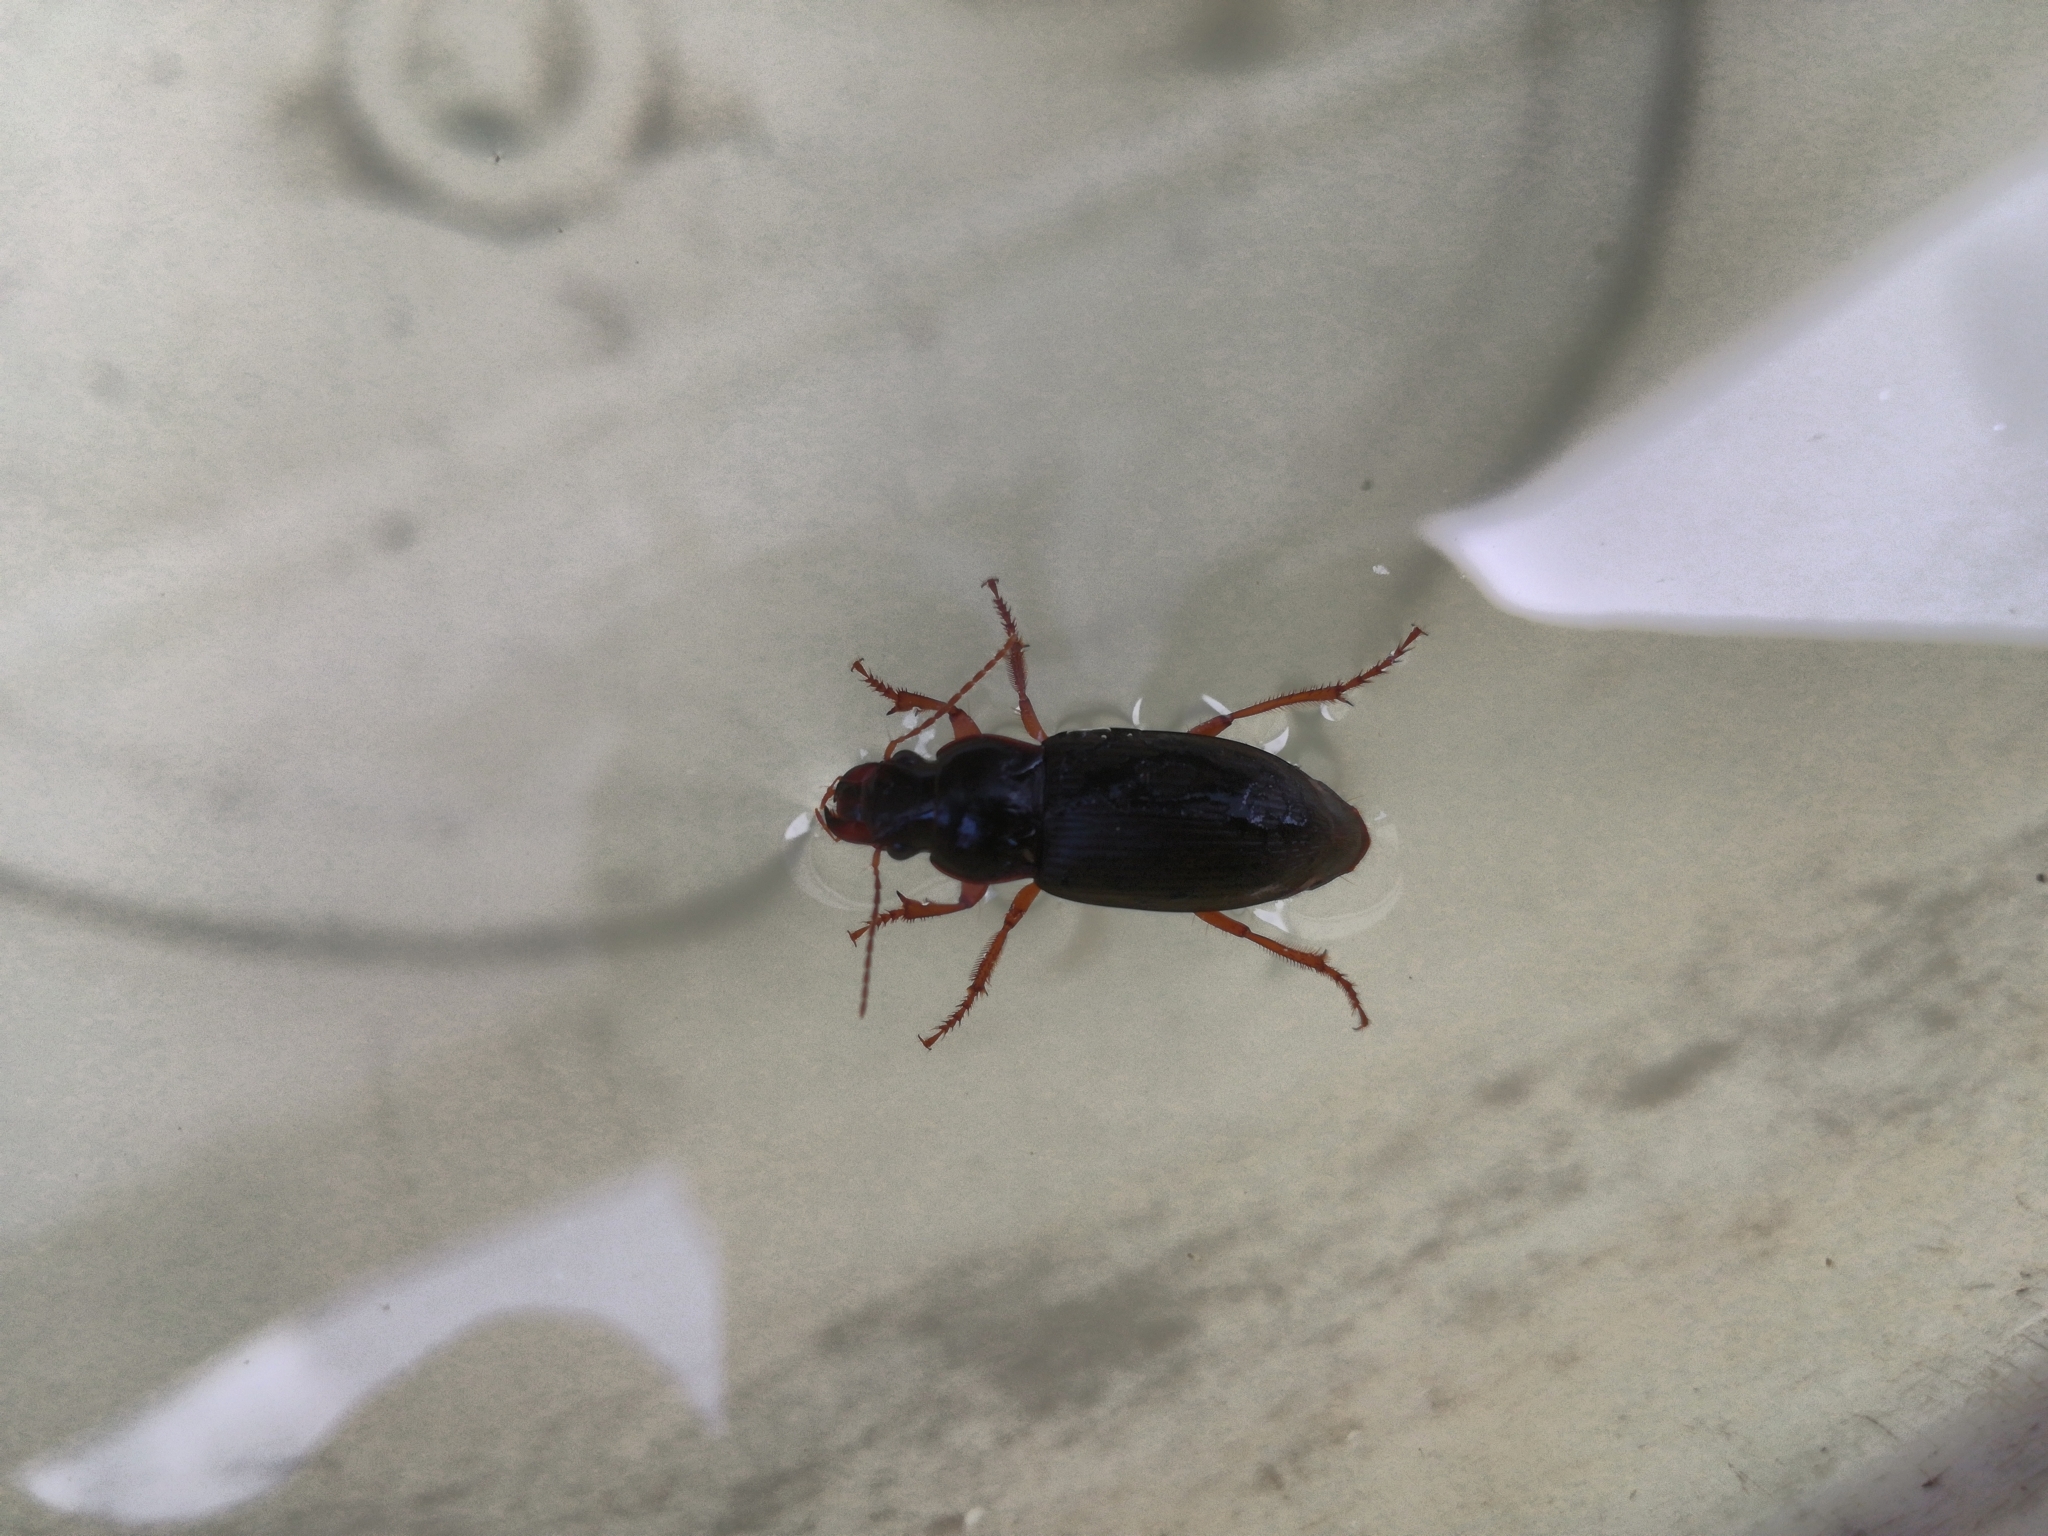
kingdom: Animalia
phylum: Arthropoda
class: Insecta
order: Coleoptera
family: Carabidae
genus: Harpalus
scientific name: Harpalus rufipes
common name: Strawberry harp ground beetle
